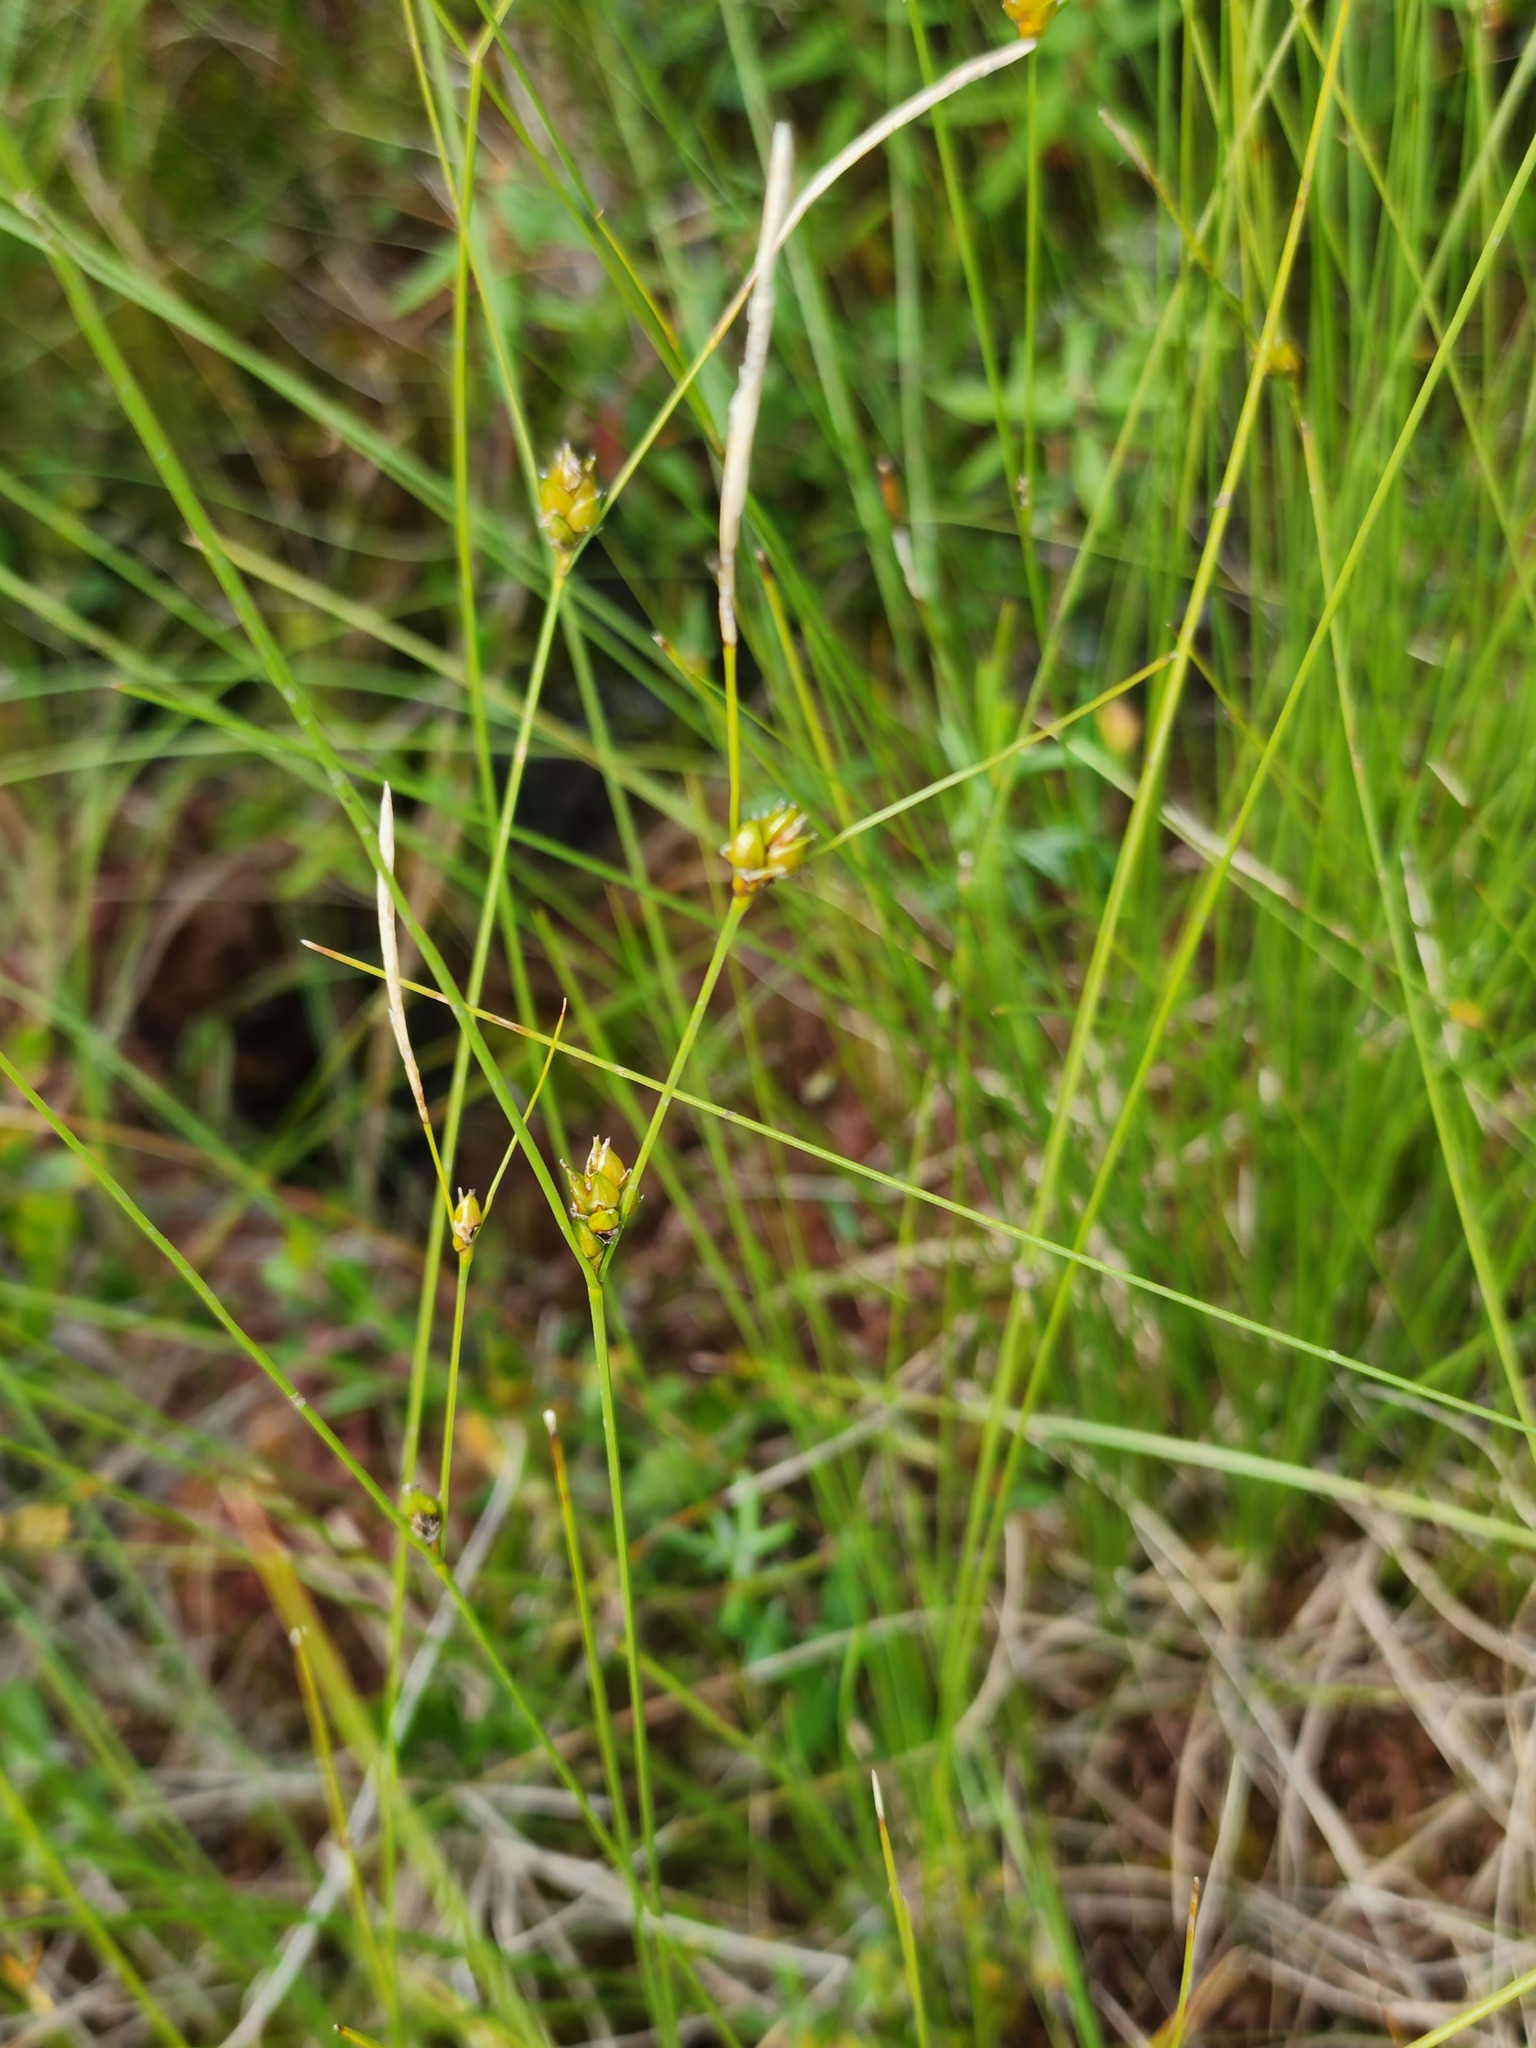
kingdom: Plantae
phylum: Tracheophyta
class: Liliopsida
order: Poales
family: Cyperaceae
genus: Carex
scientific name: Carex oligosperma
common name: Few-seed sedge
